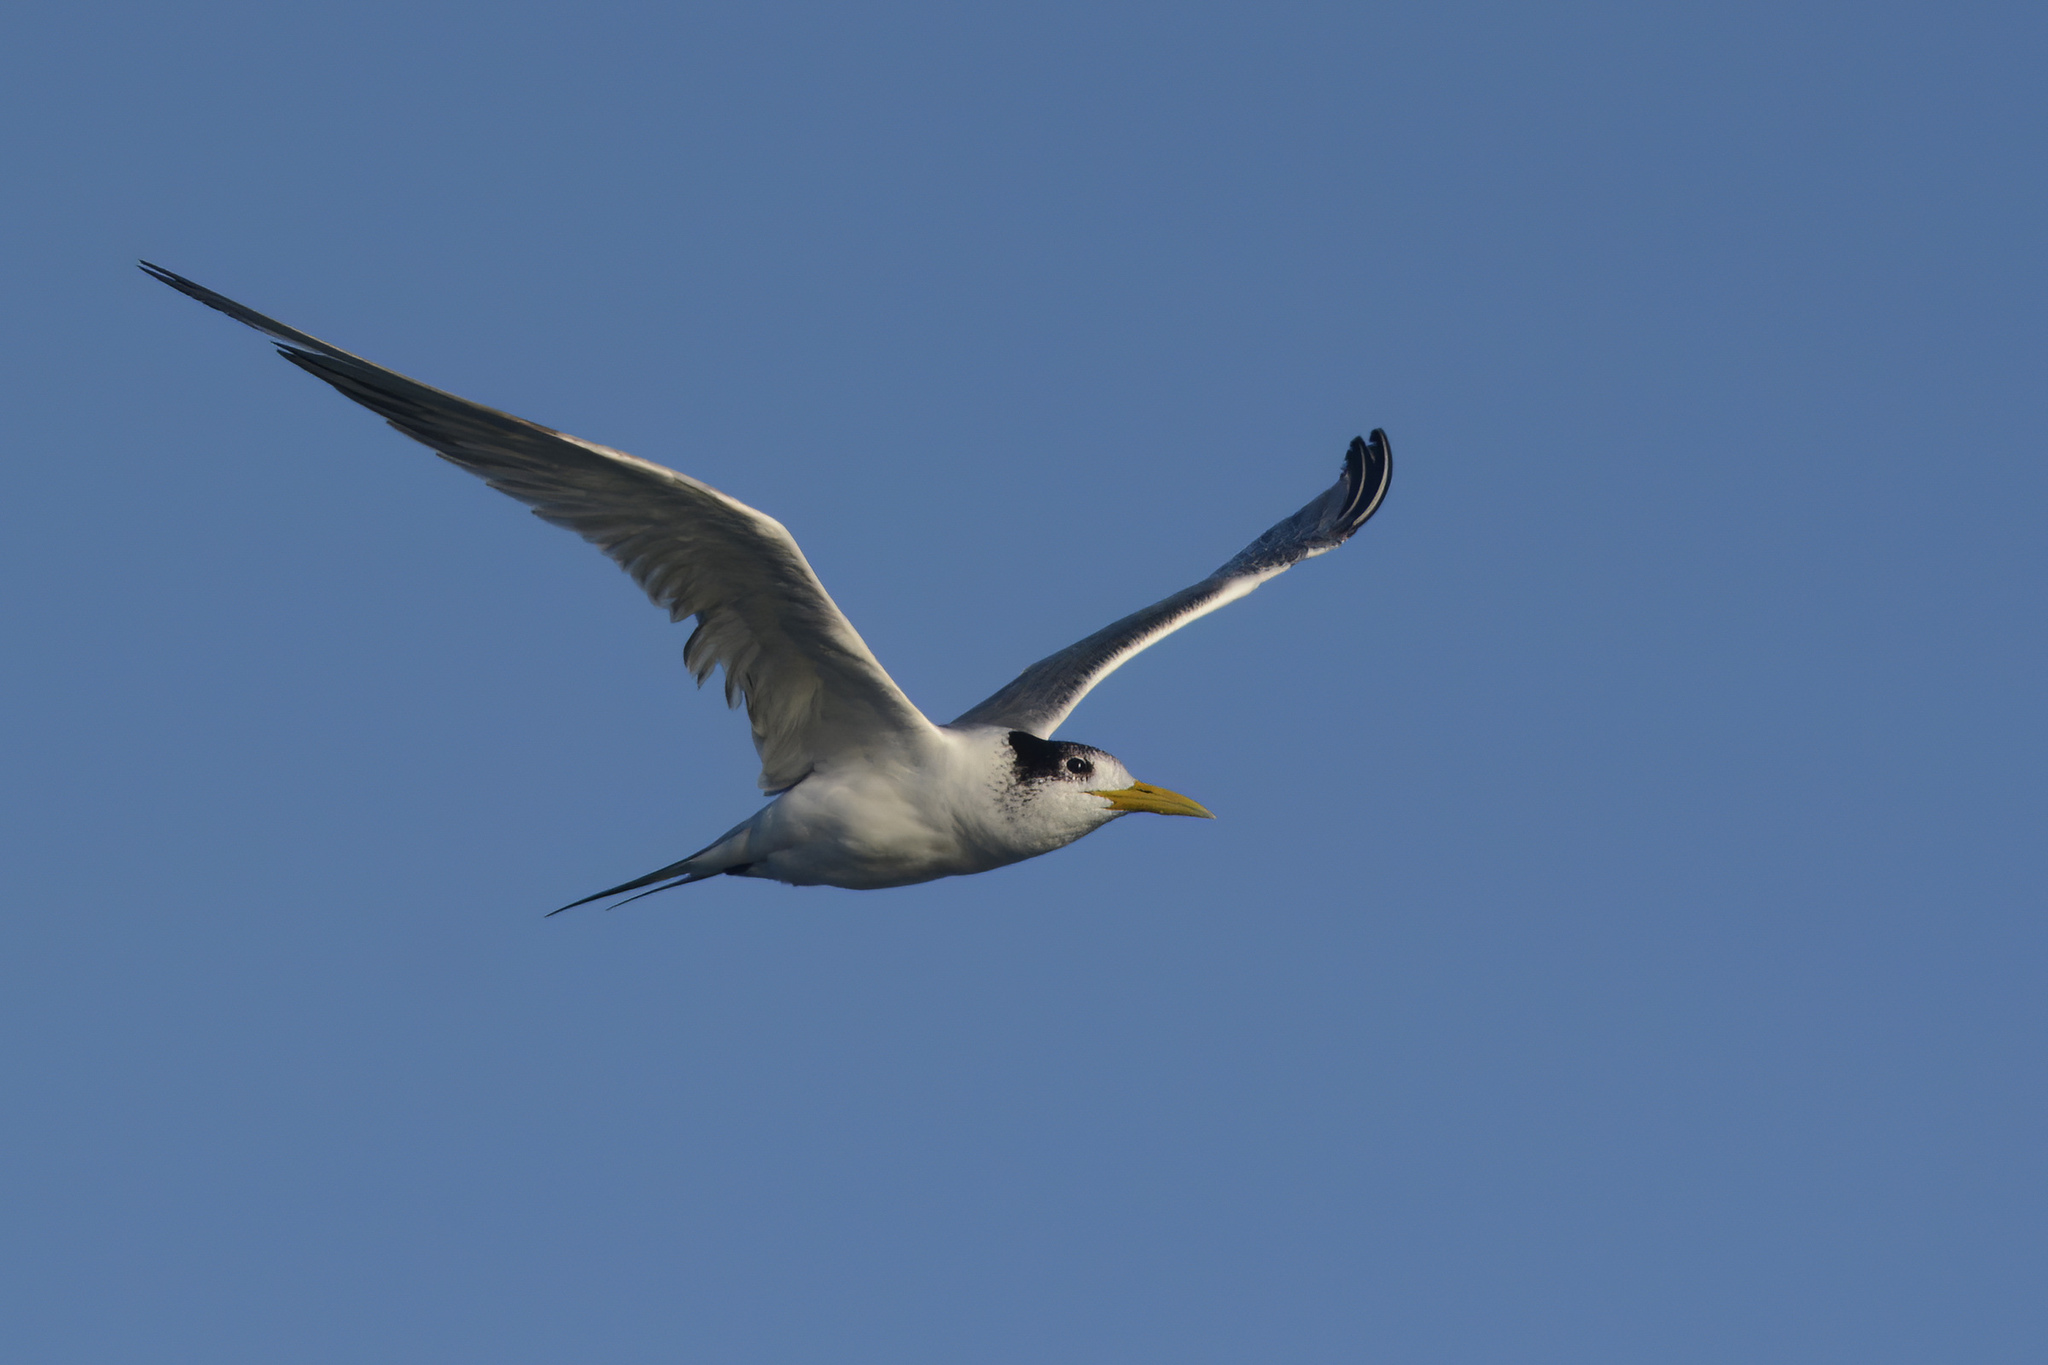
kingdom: Animalia
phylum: Chordata
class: Aves
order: Charadriiformes
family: Laridae
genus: Thalasseus
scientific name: Thalasseus bergii
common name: Greater crested tern
